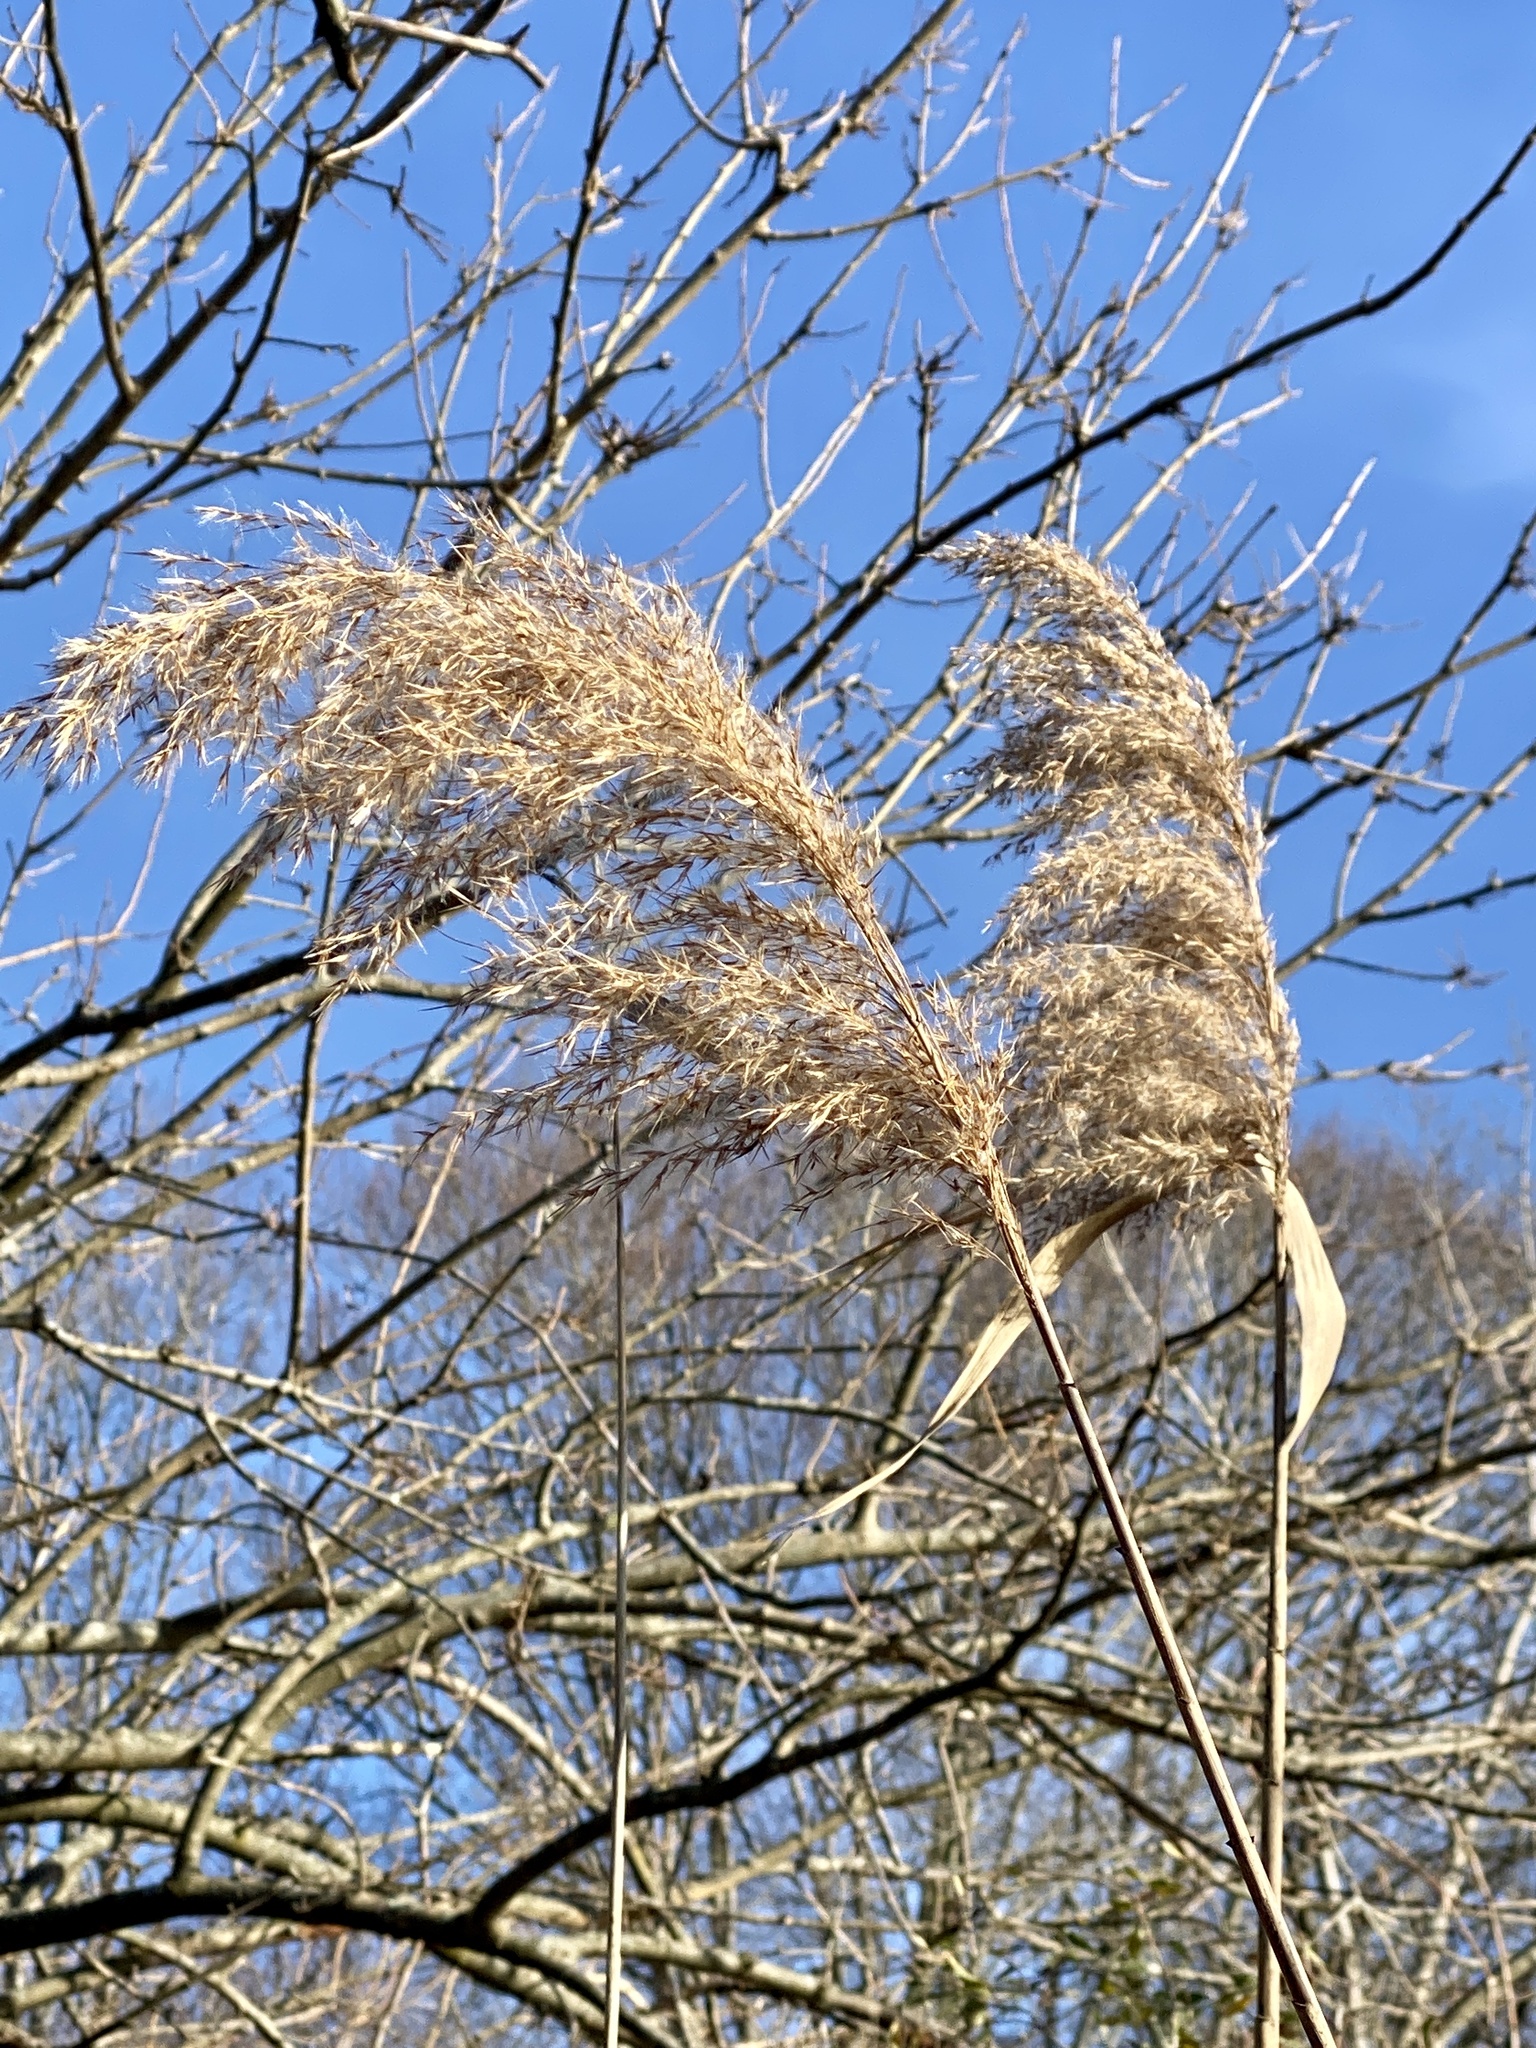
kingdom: Plantae
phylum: Tracheophyta
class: Liliopsida
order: Poales
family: Poaceae
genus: Phragmites
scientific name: Phragmites australis
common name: Common reed
